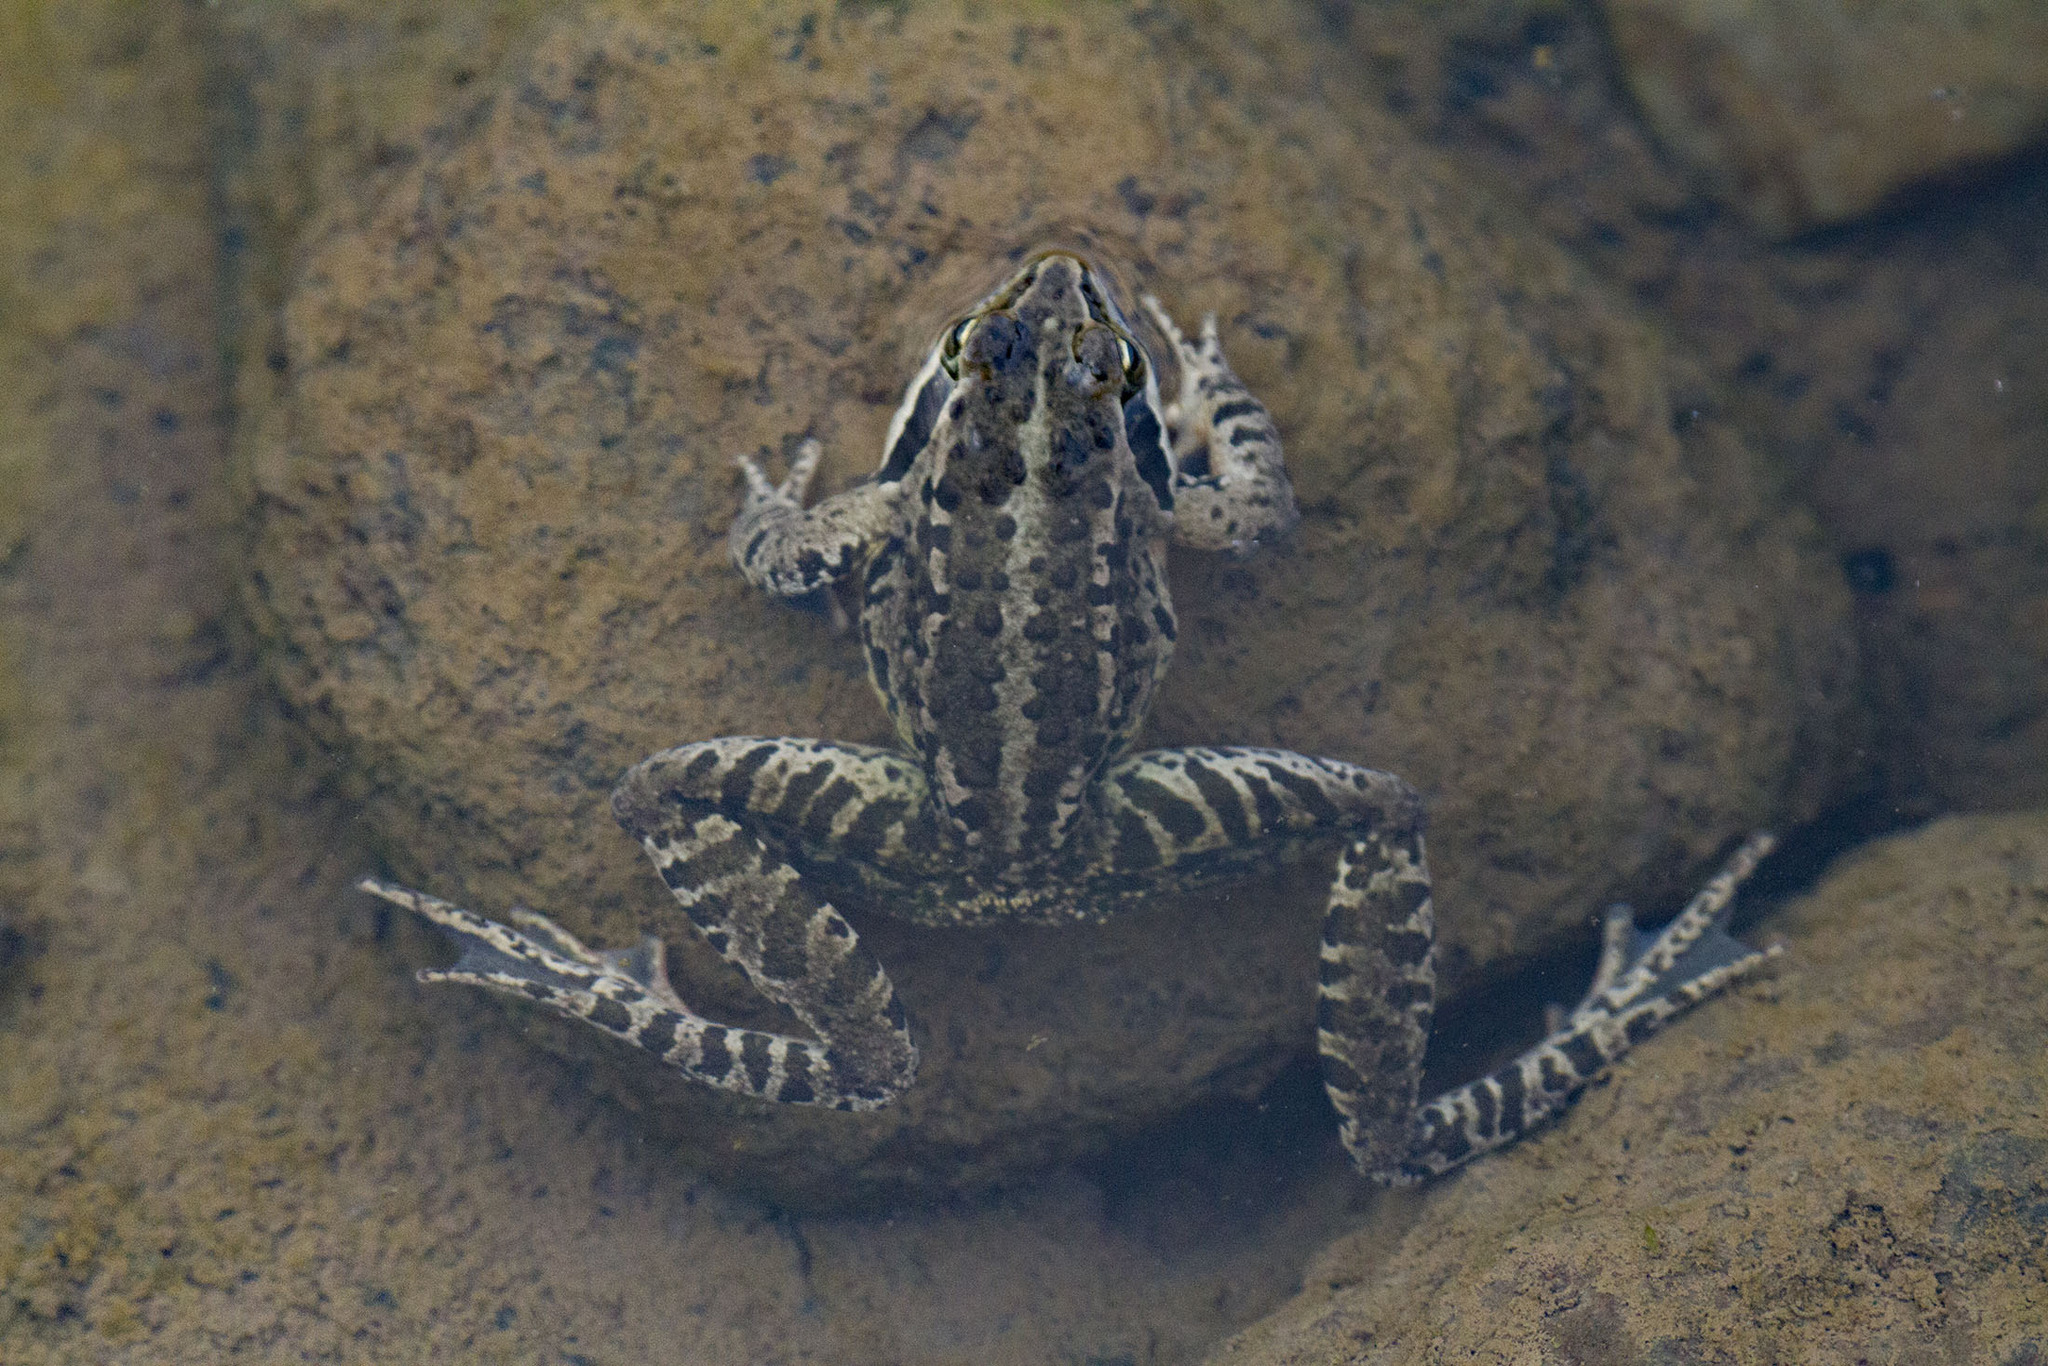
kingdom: Animalia
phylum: Chordata
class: Amphibia
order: Anura
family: Ranidae
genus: Rana
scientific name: Rana macrocnemis
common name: Banded frog
